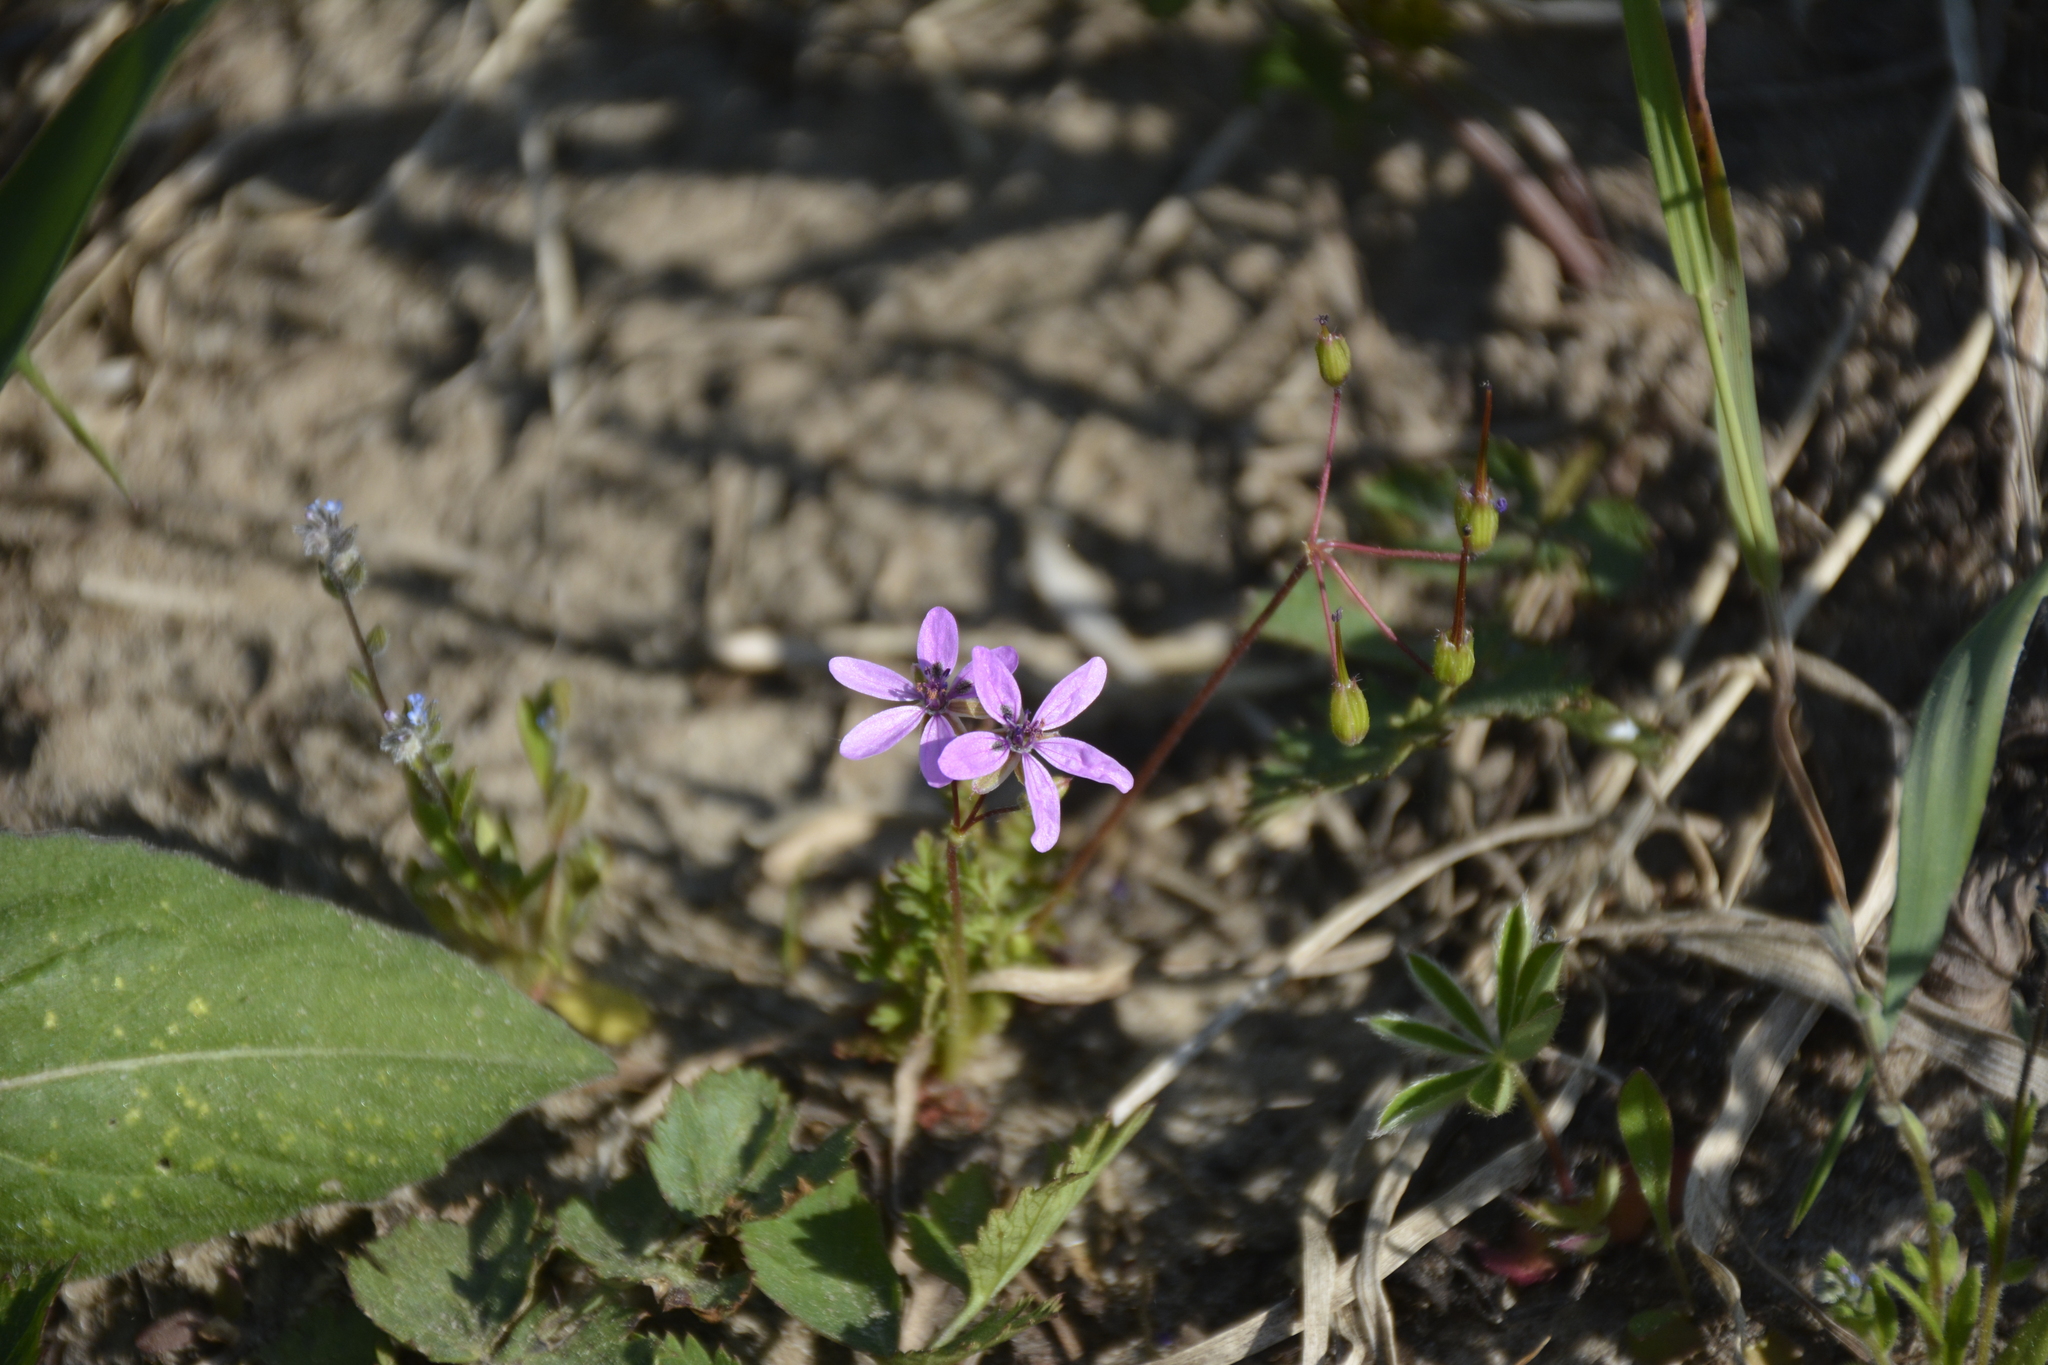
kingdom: Plantae
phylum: Tracheophyta
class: Magnoliopsida
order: Geraniales
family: Geraniaceae
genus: Erodium
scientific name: Erodium cicutarium
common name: Common stork's-bill
